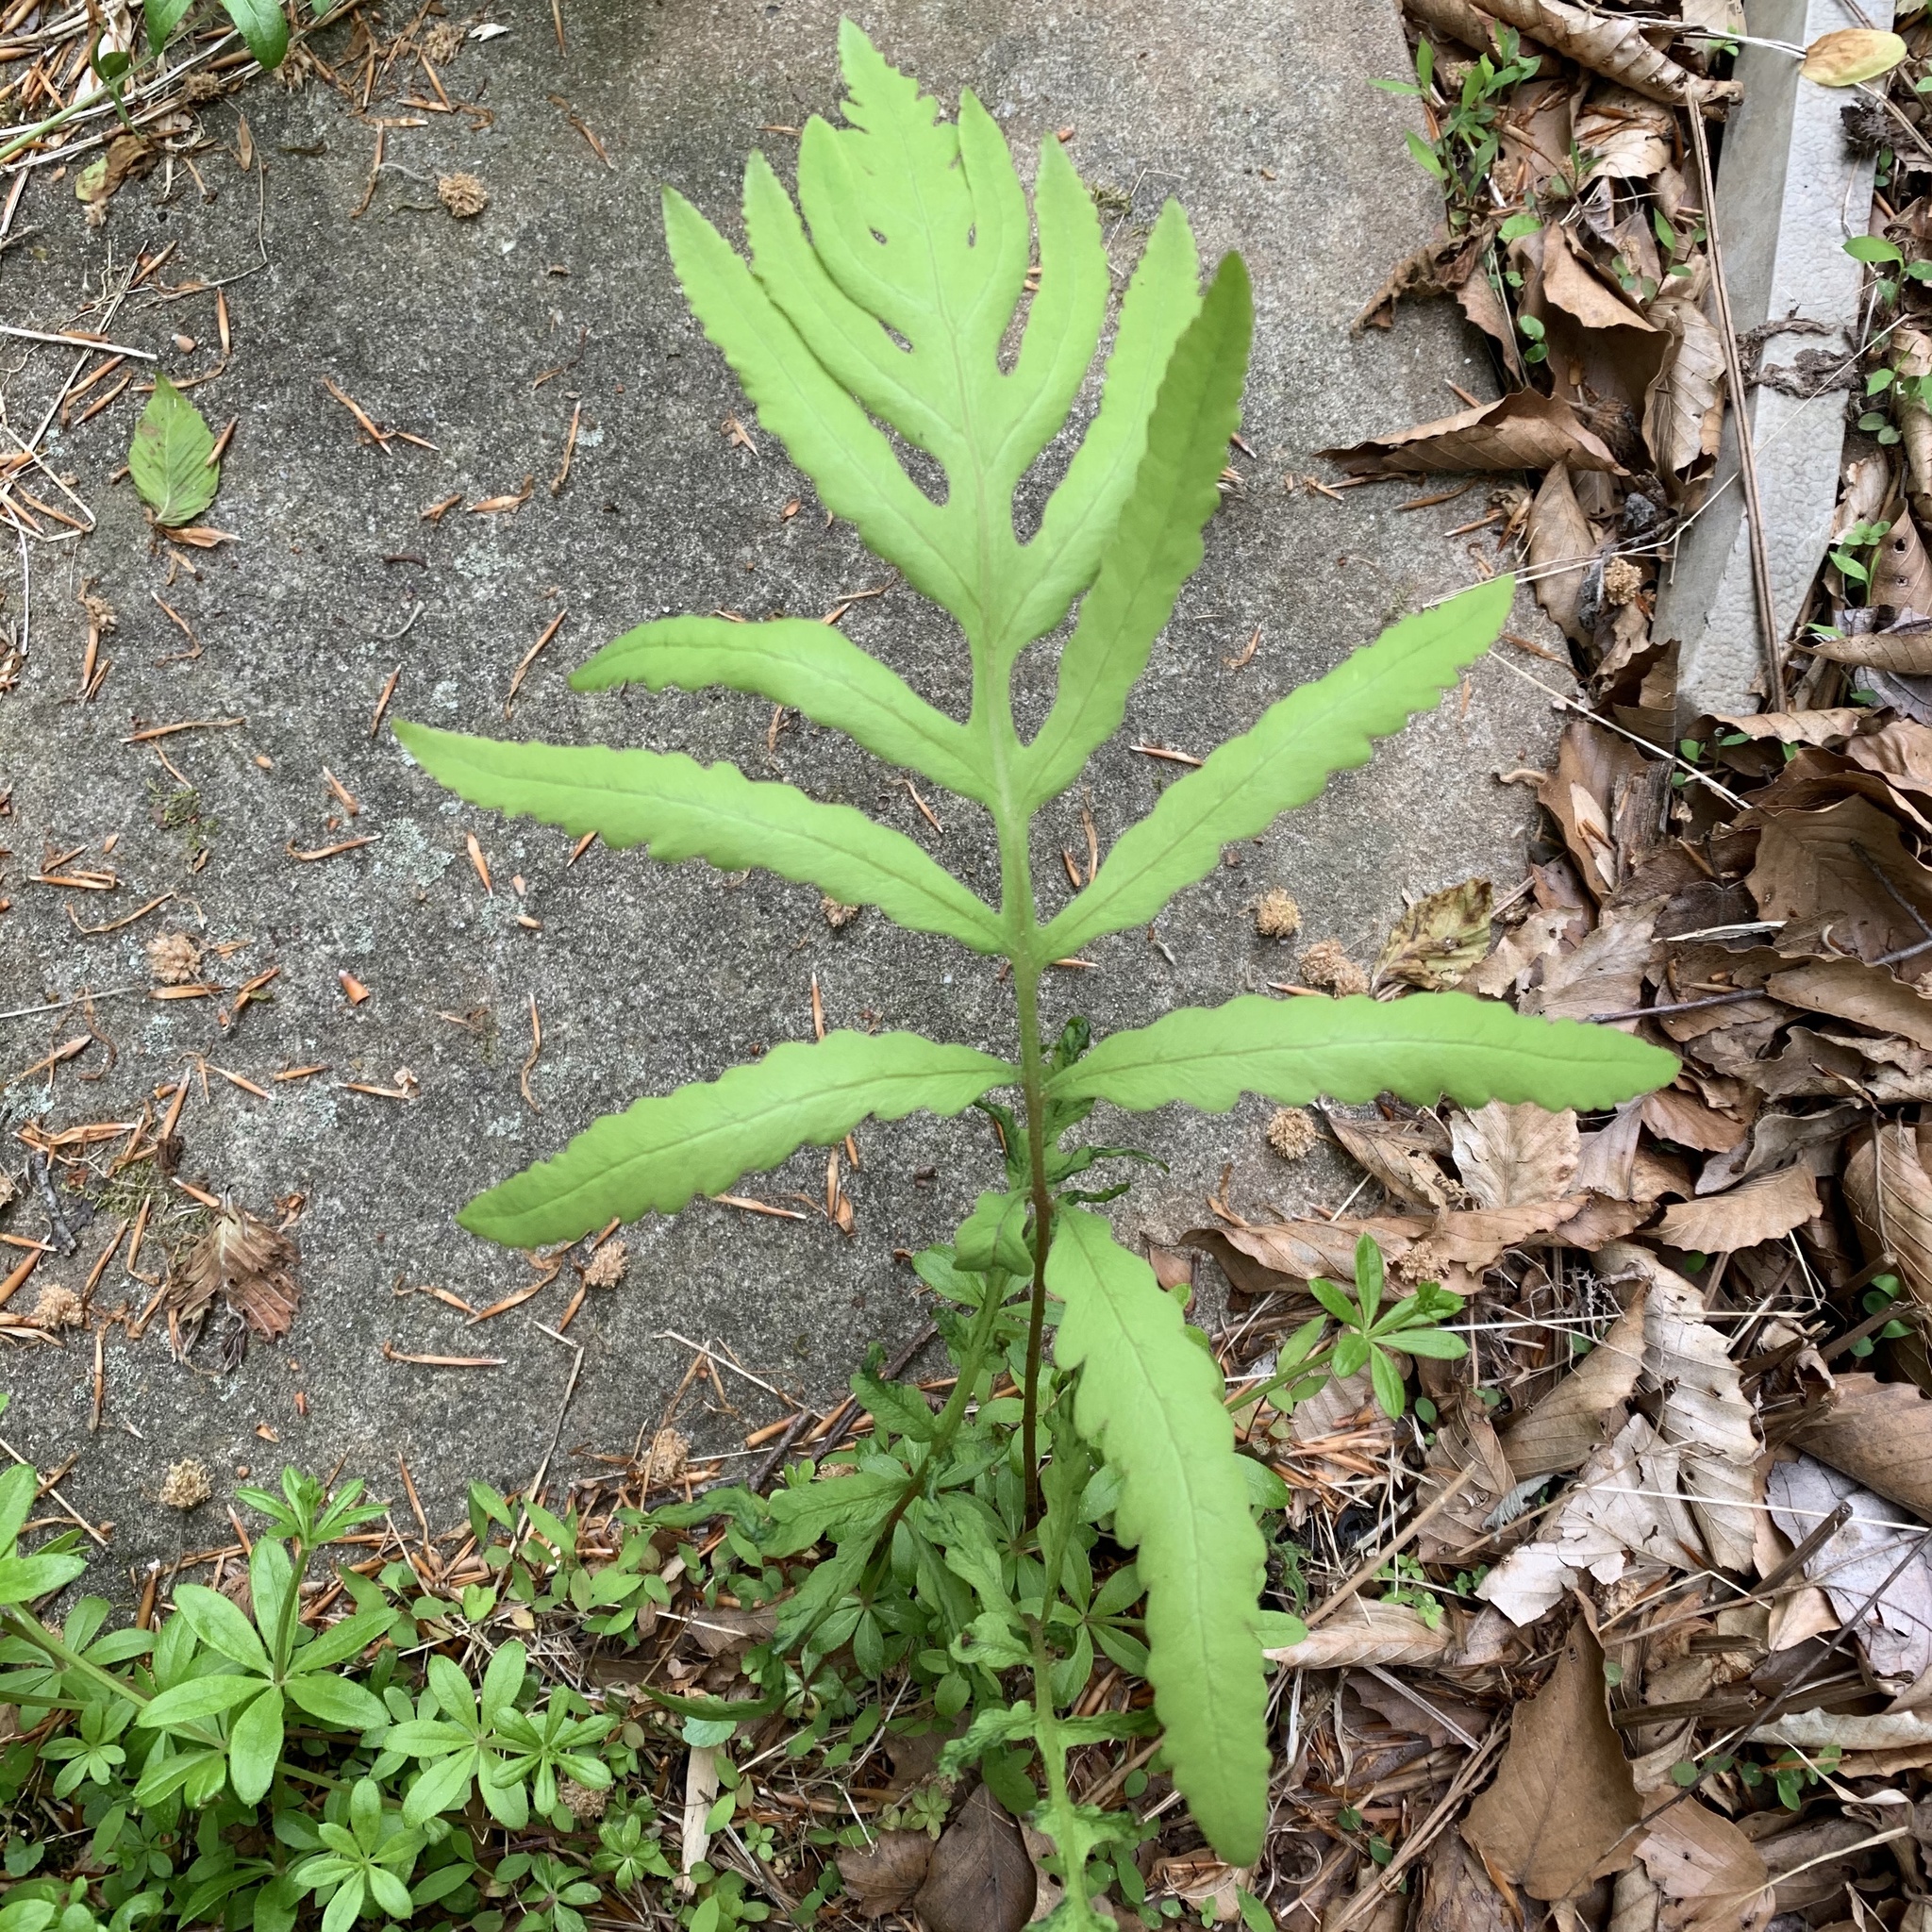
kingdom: Plantae
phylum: Tracheophyta
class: Polypodiopsida
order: Polypodiales
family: Onocleaceae
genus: Onoclea
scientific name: Onoclea sensibilis
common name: Sensitive fern
